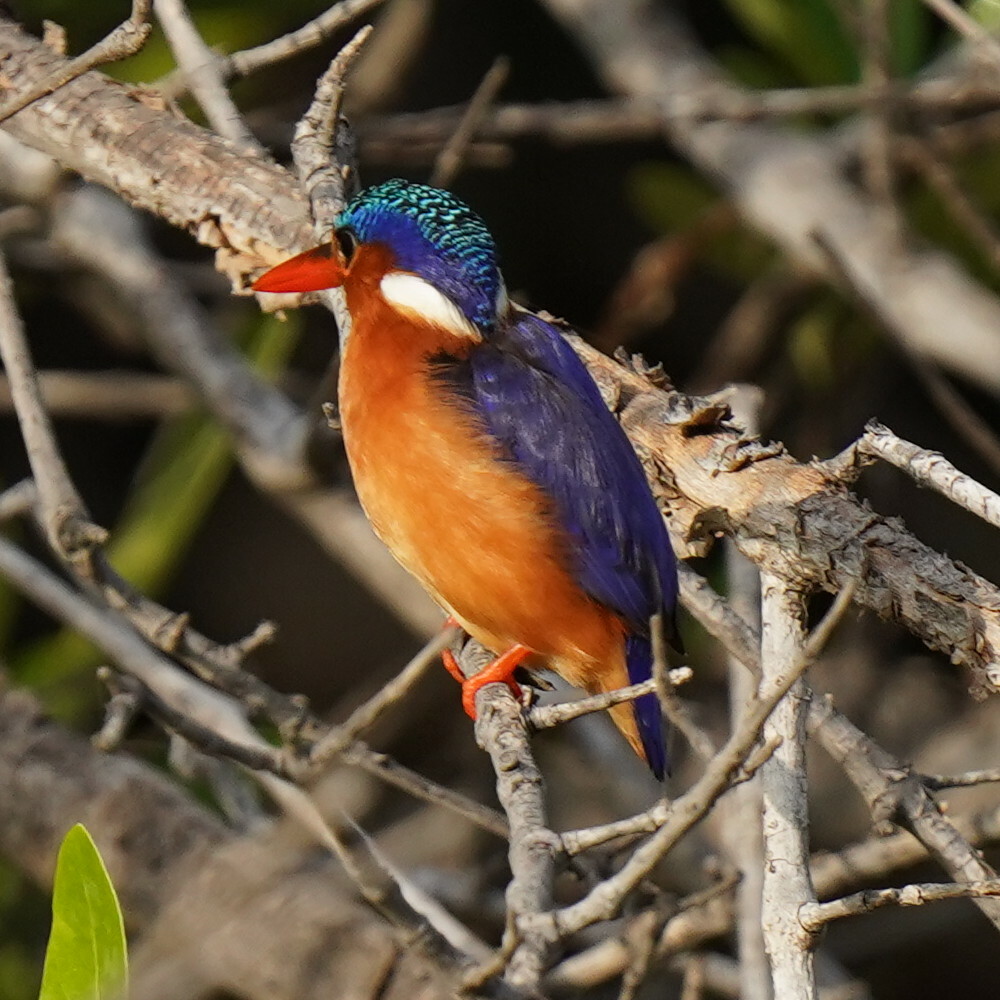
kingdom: Animalia
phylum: Chordata
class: Aves
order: Coraciiformes
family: Alcedinidae
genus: Corythornis
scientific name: Corythornis cristatus
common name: Malachite kingfisher
